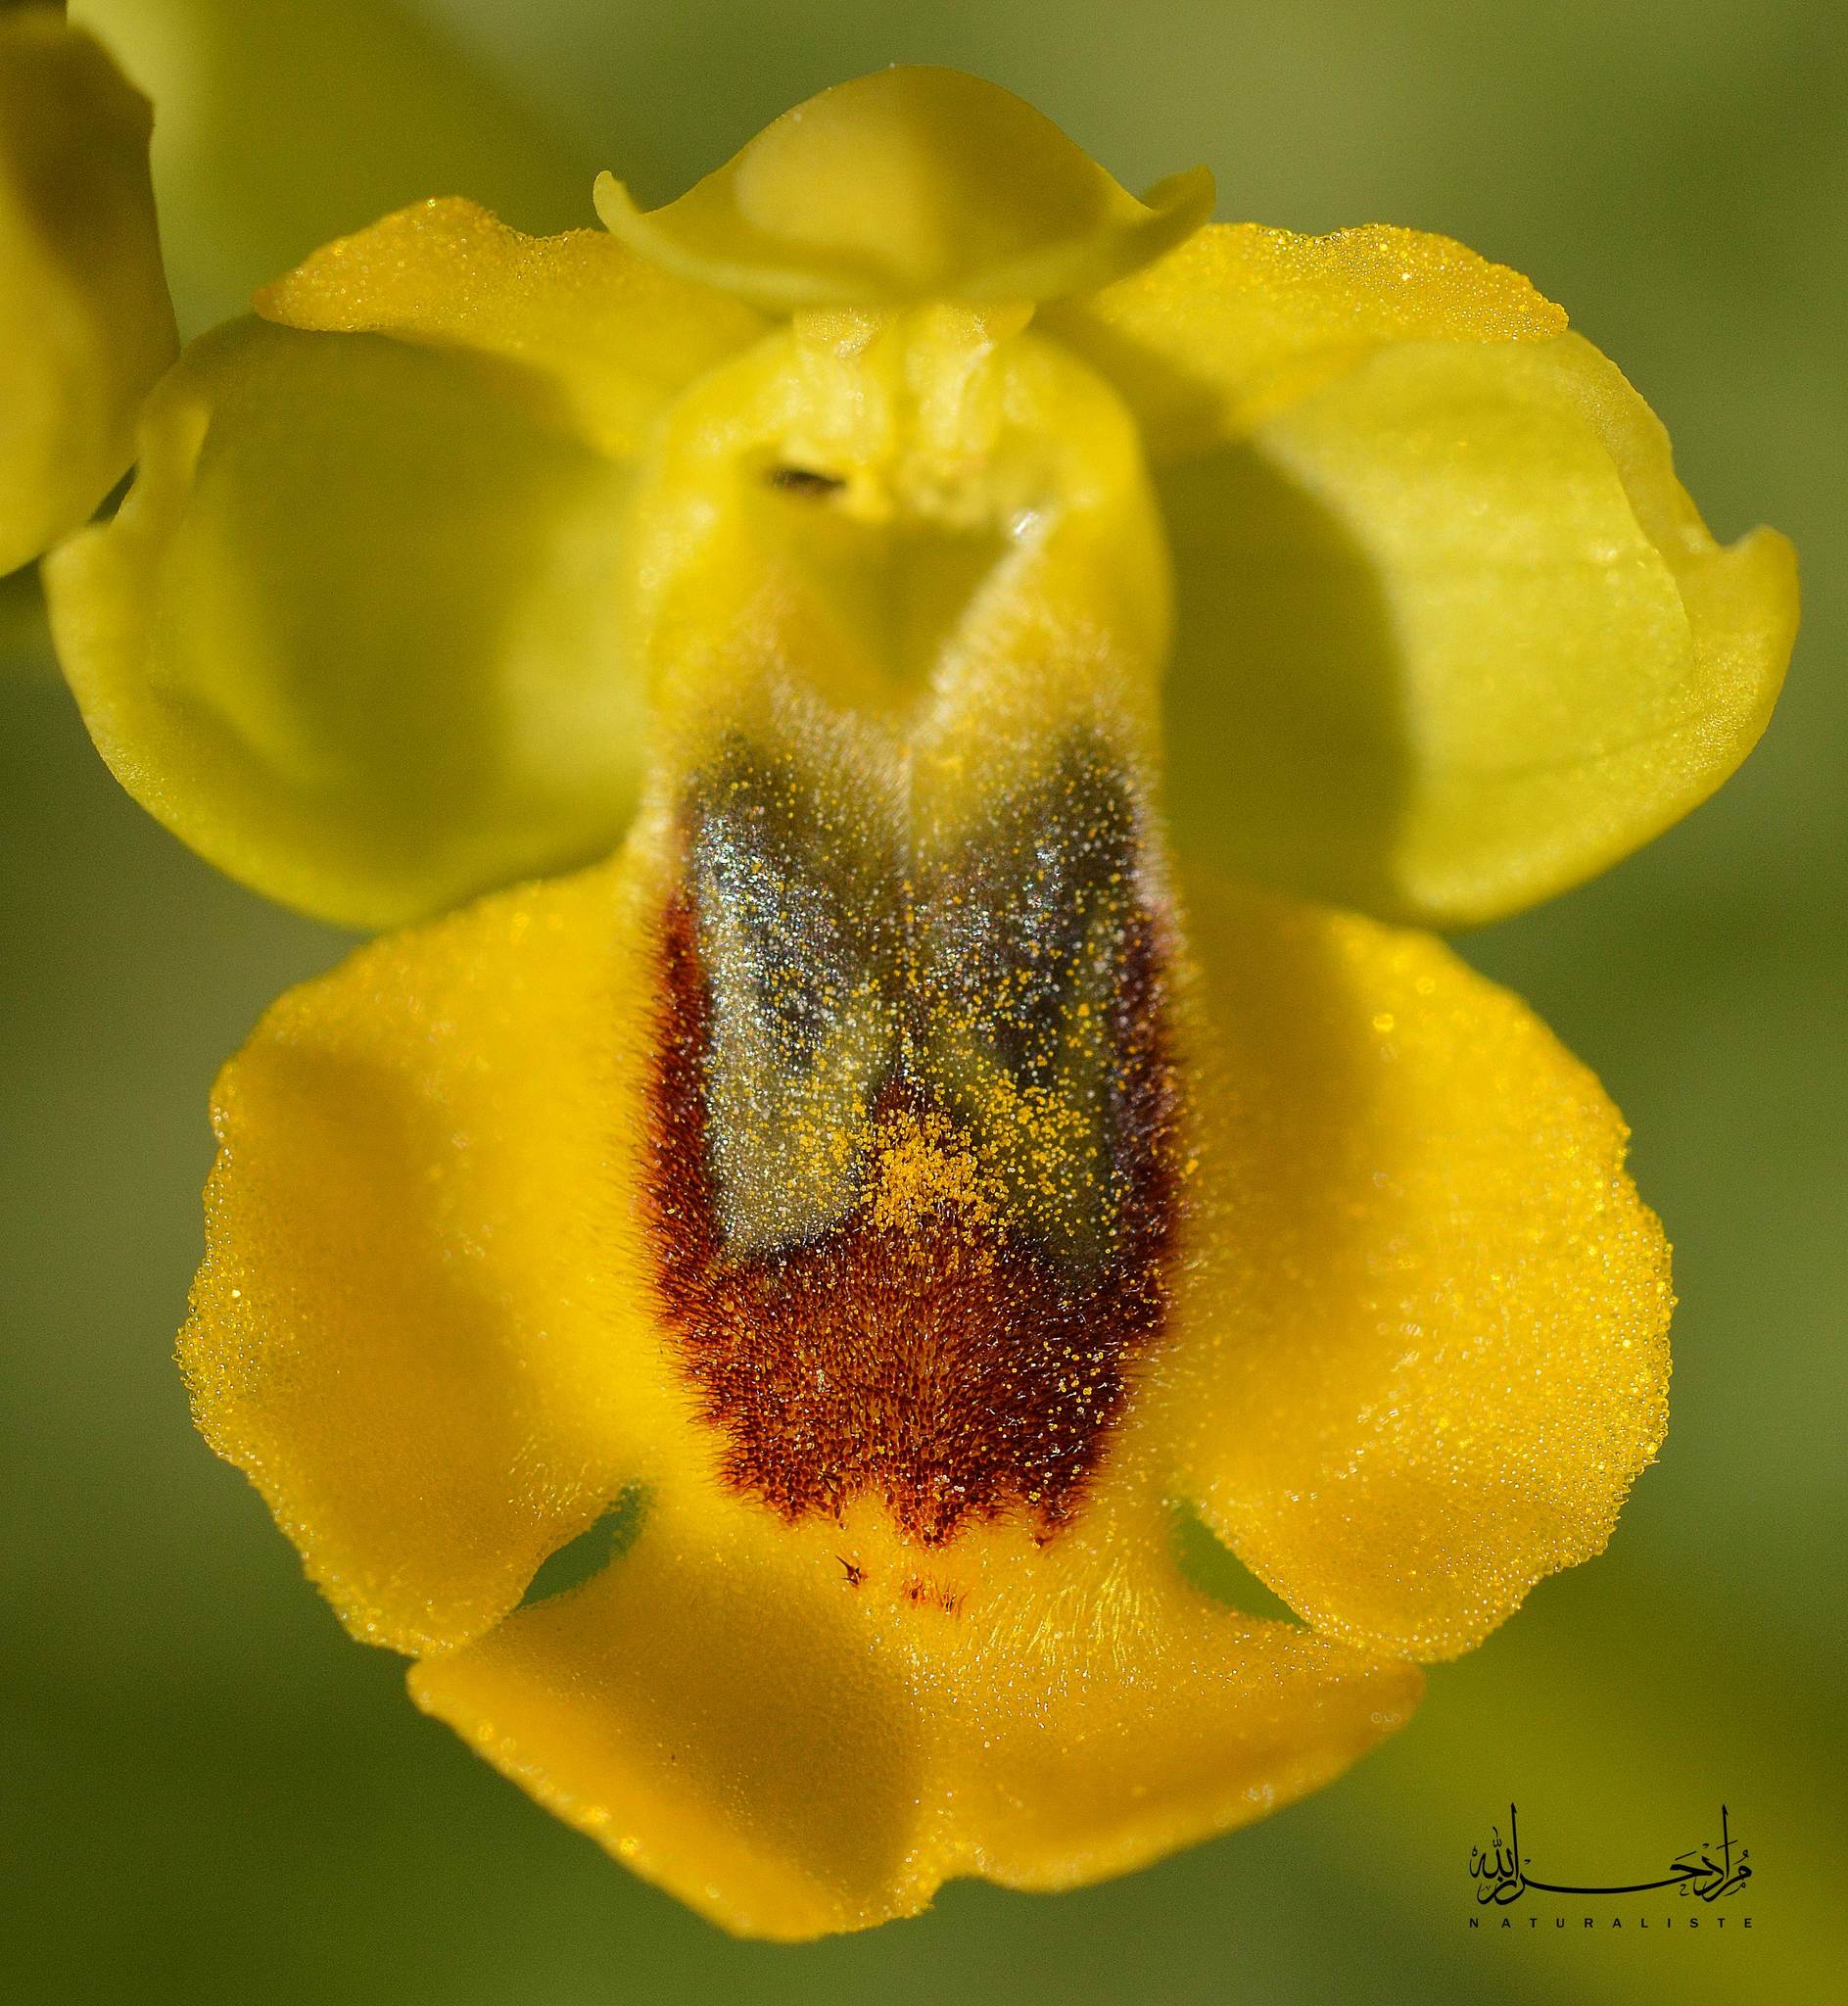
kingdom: Plantae
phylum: Tracheophyta
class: Liliopsida
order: Asparagales
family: Orchidaceae
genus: Ophrys
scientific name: Ophrys lutea
